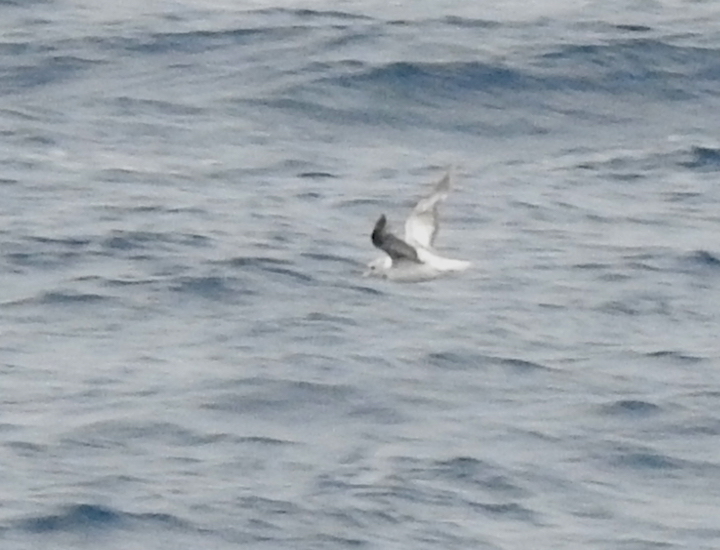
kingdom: Animalia
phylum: Chordata
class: Aves
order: Procellariiformes
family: Procellariidae
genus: Fulmarus
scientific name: Fulmarus glacialis
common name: Northern fulmar
